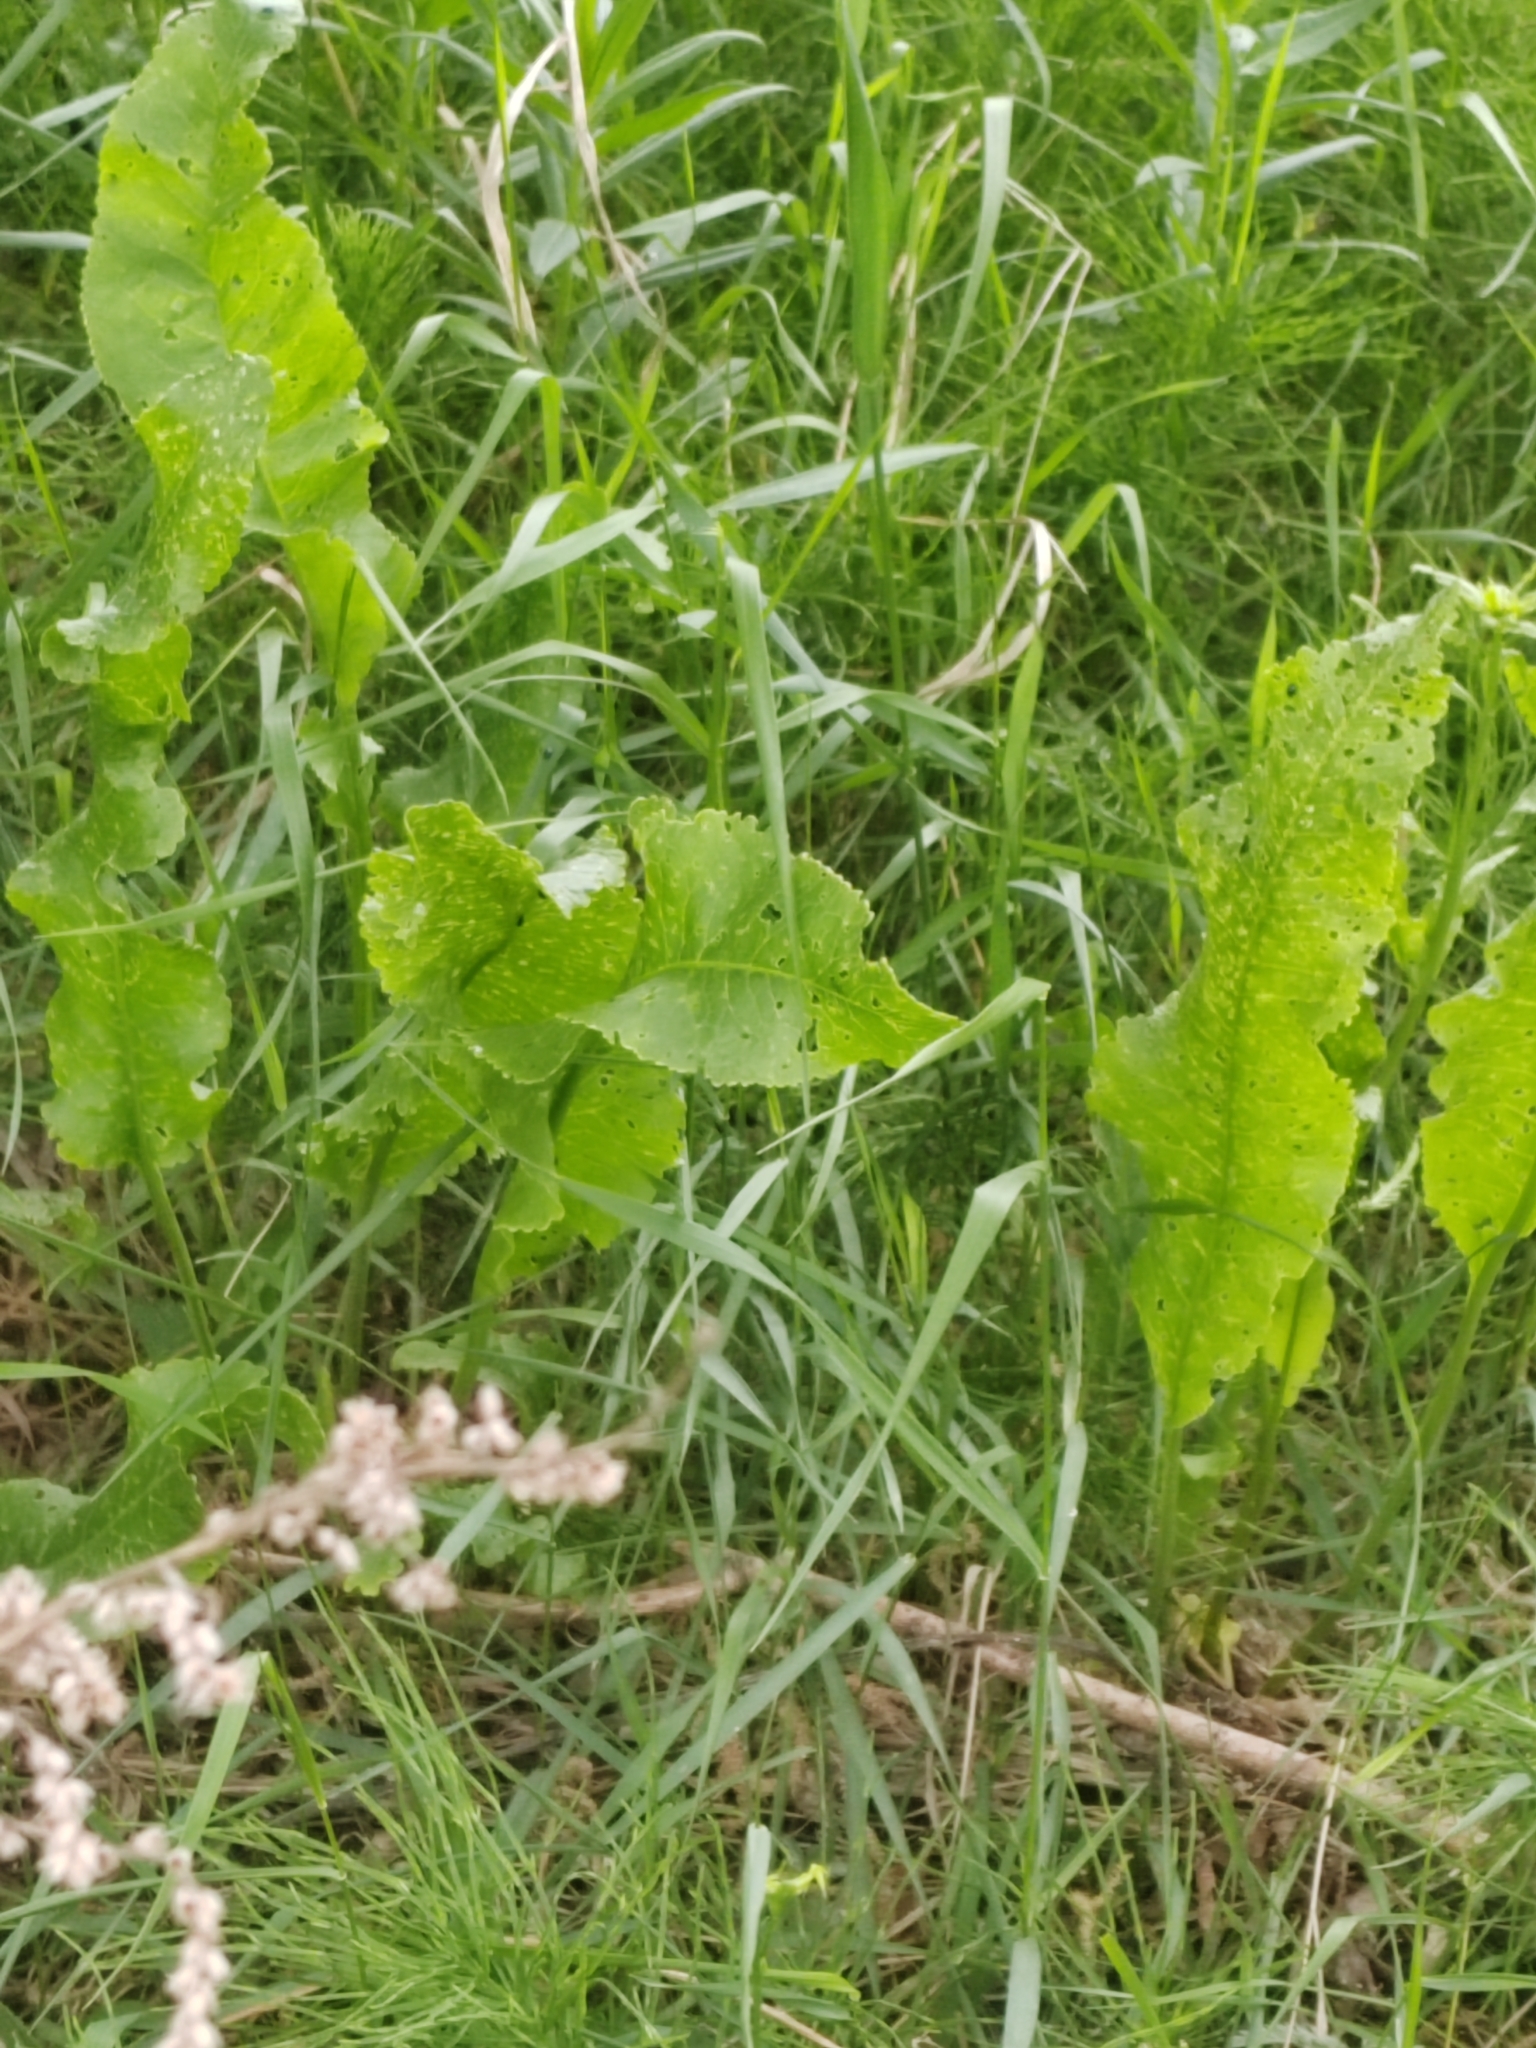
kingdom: Plantae
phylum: Tracheophyta
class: Magnoliopsida
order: Brassicales
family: Brassicaceae
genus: Armoracia
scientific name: Armoracia rusticana
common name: Horseradish
